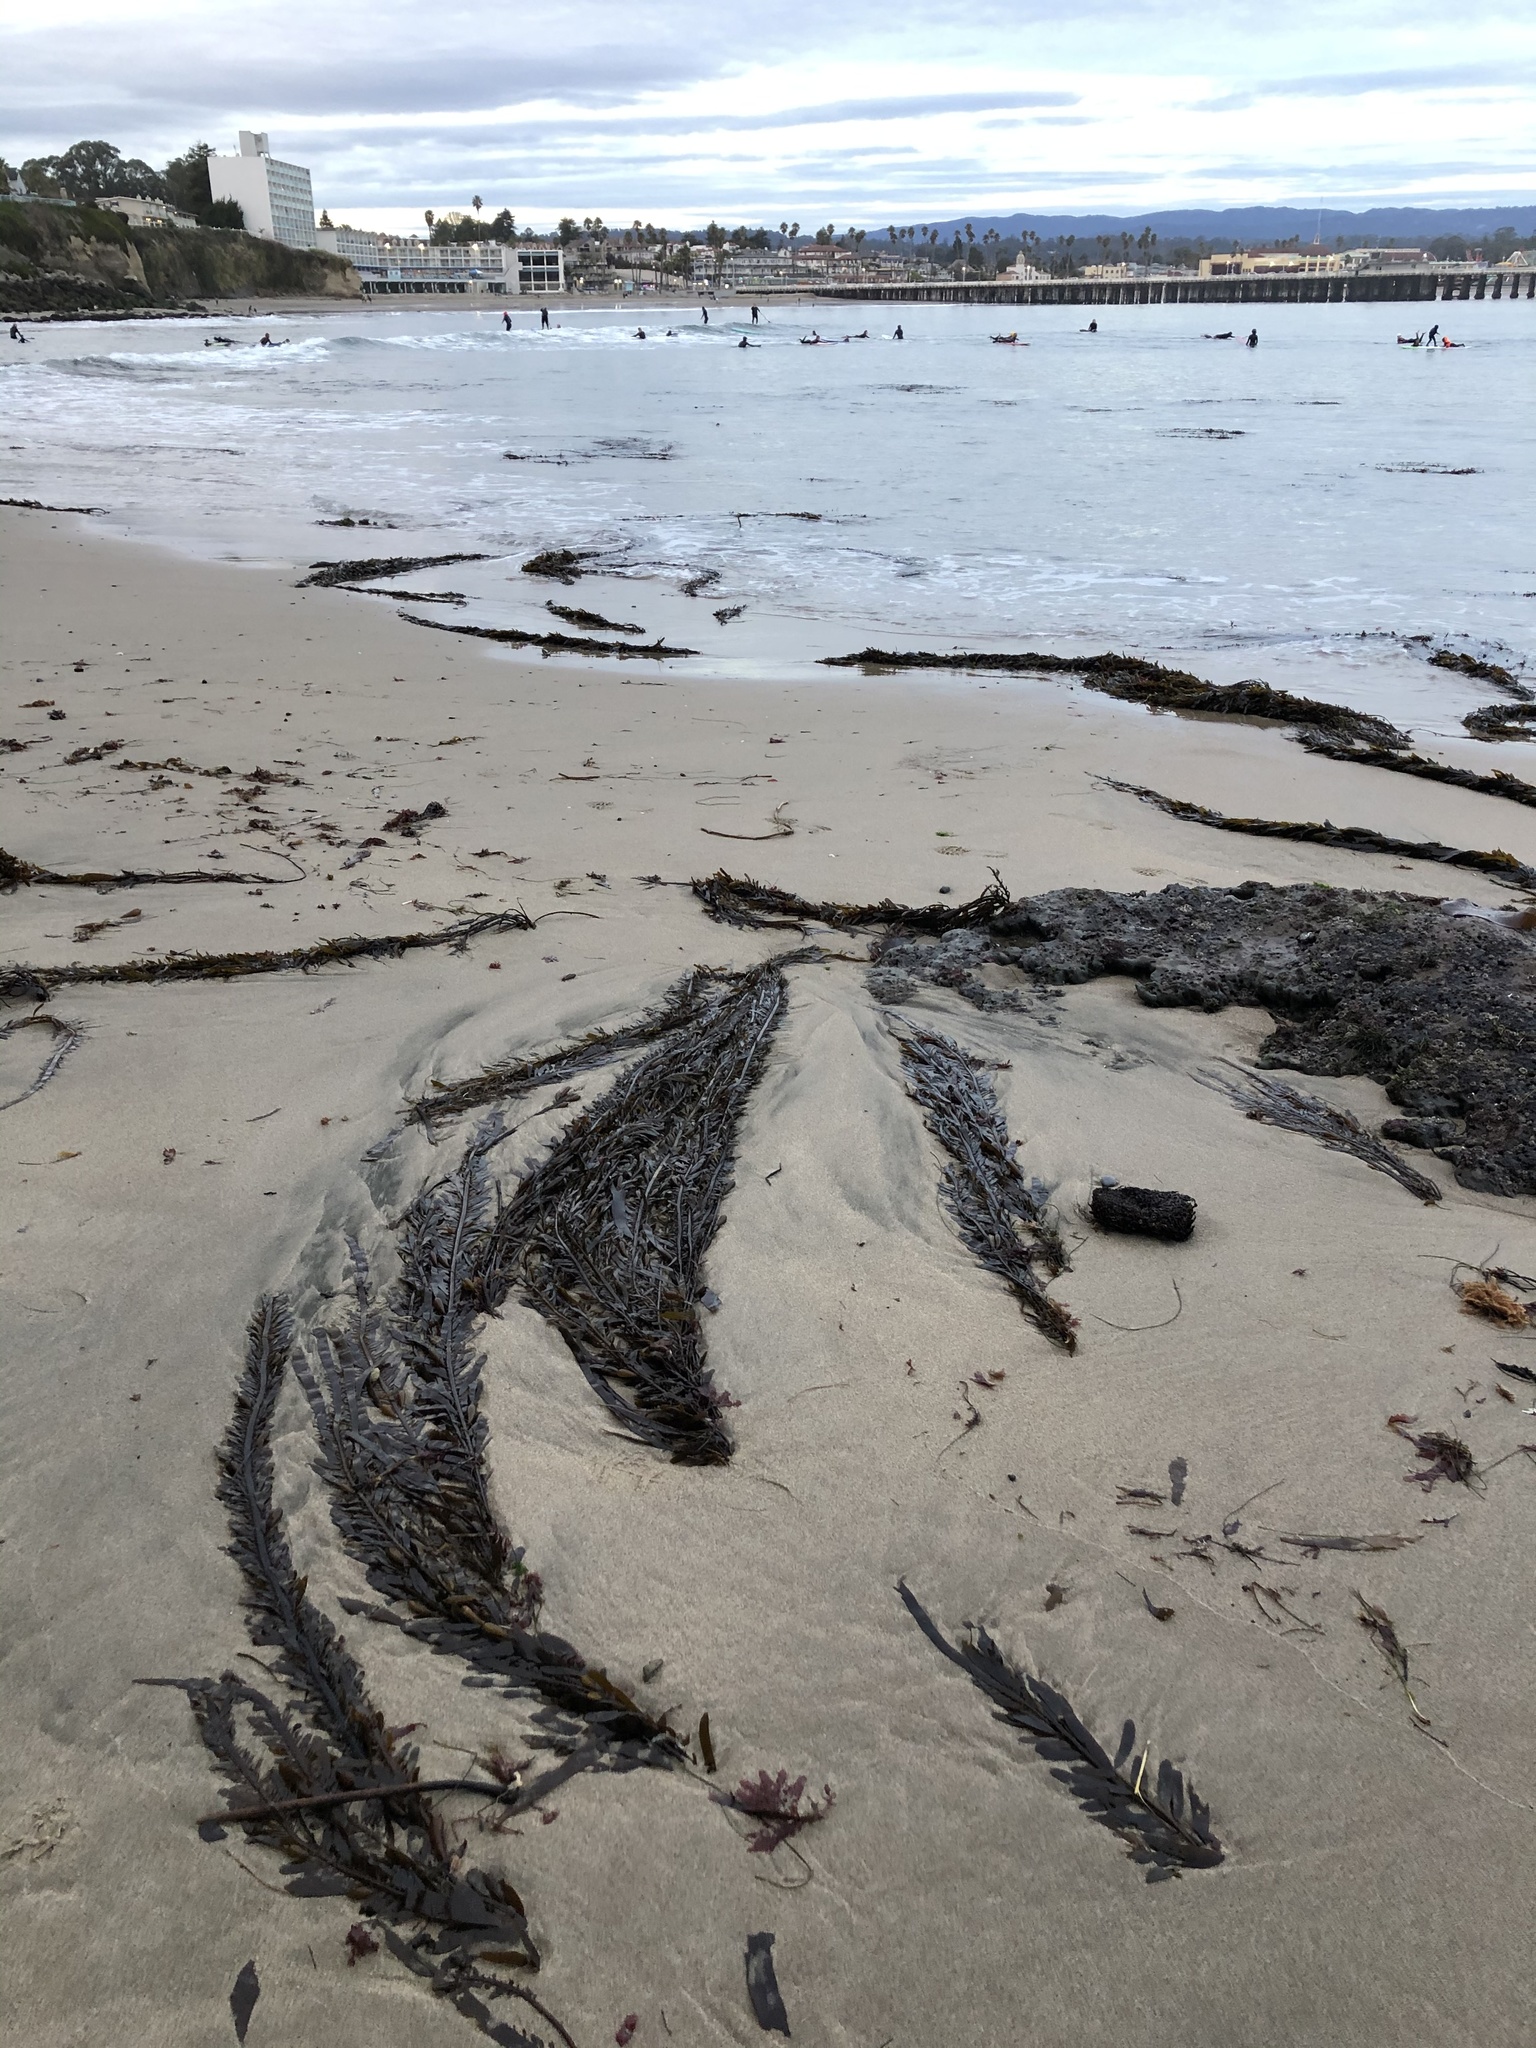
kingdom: Chromista
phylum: Ochrophyta
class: Phaeophyceae
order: Laminariales
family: Lessoniaceae
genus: Egregia
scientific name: Egregia menziesii
